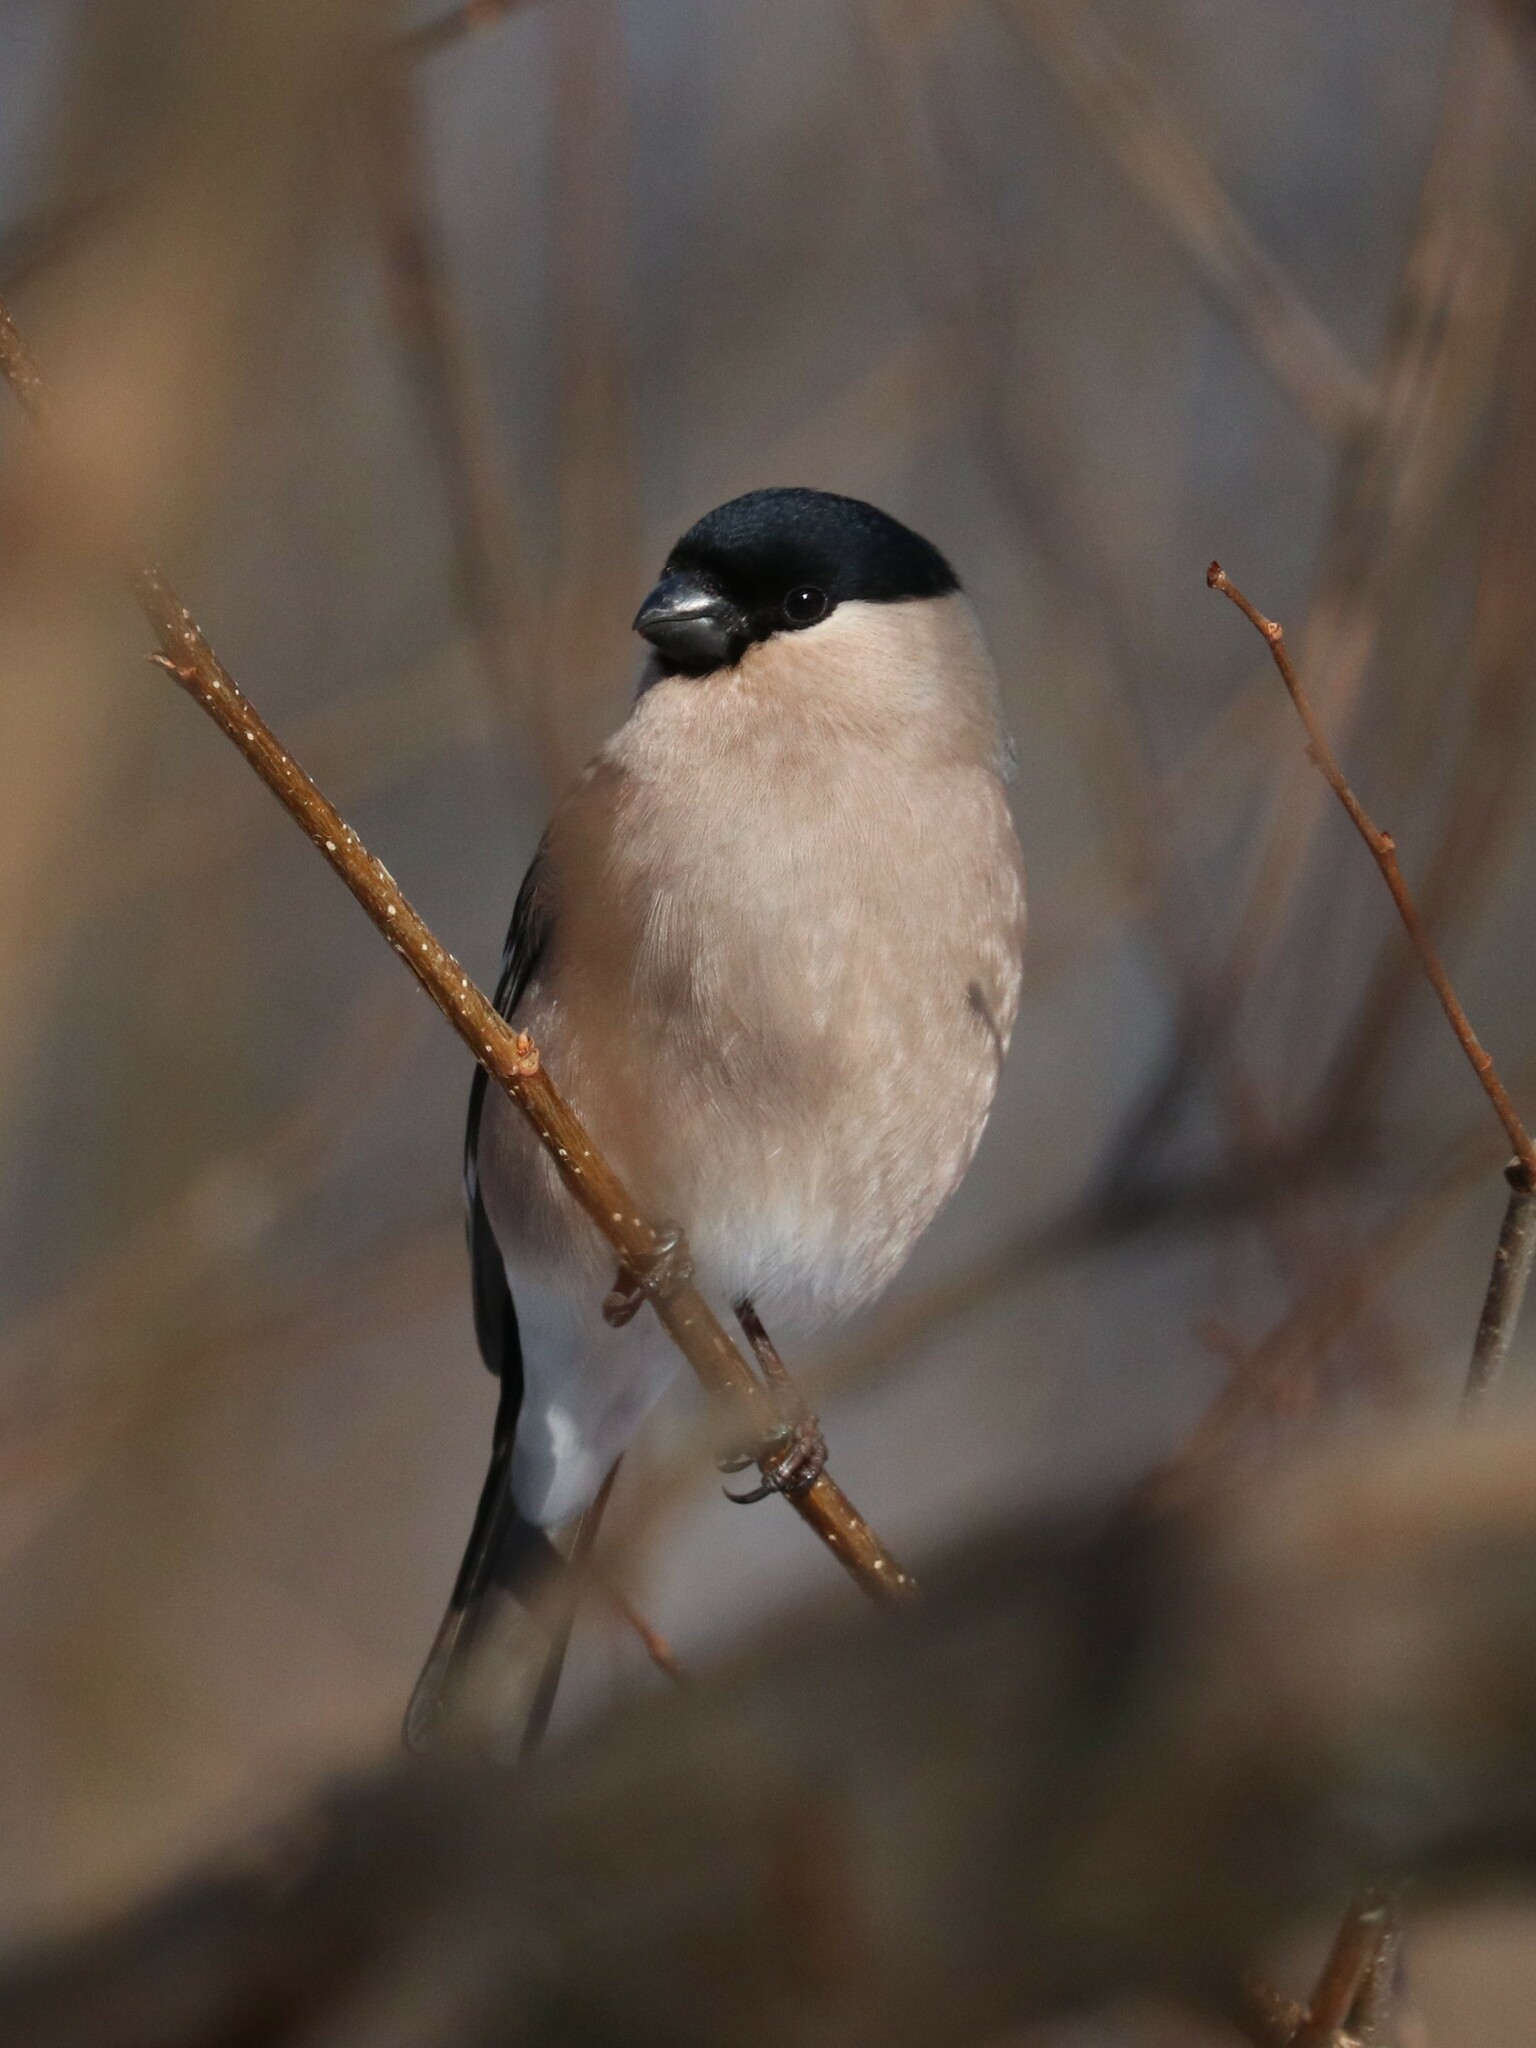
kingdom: Animalia
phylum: Chordata
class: Aves
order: Passeriformes
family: Fringillidae
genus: Pyrrhula
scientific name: Pyrrhula pyrrhula
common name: Eurasian bullfinch
